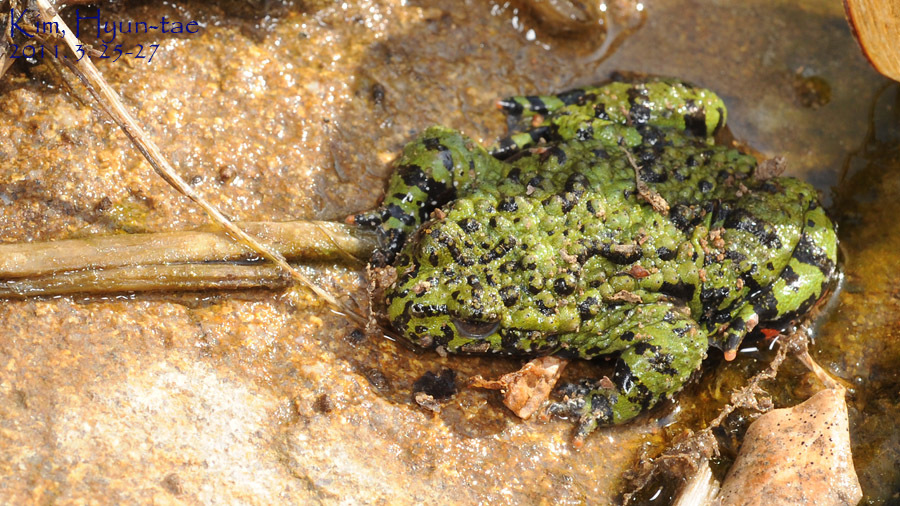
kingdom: Animalia
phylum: Chordata
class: Amphibia
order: Anura
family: Bombinatoridae
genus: Bombina
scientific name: Bombina orientalis
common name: Oriental firebelly toad
